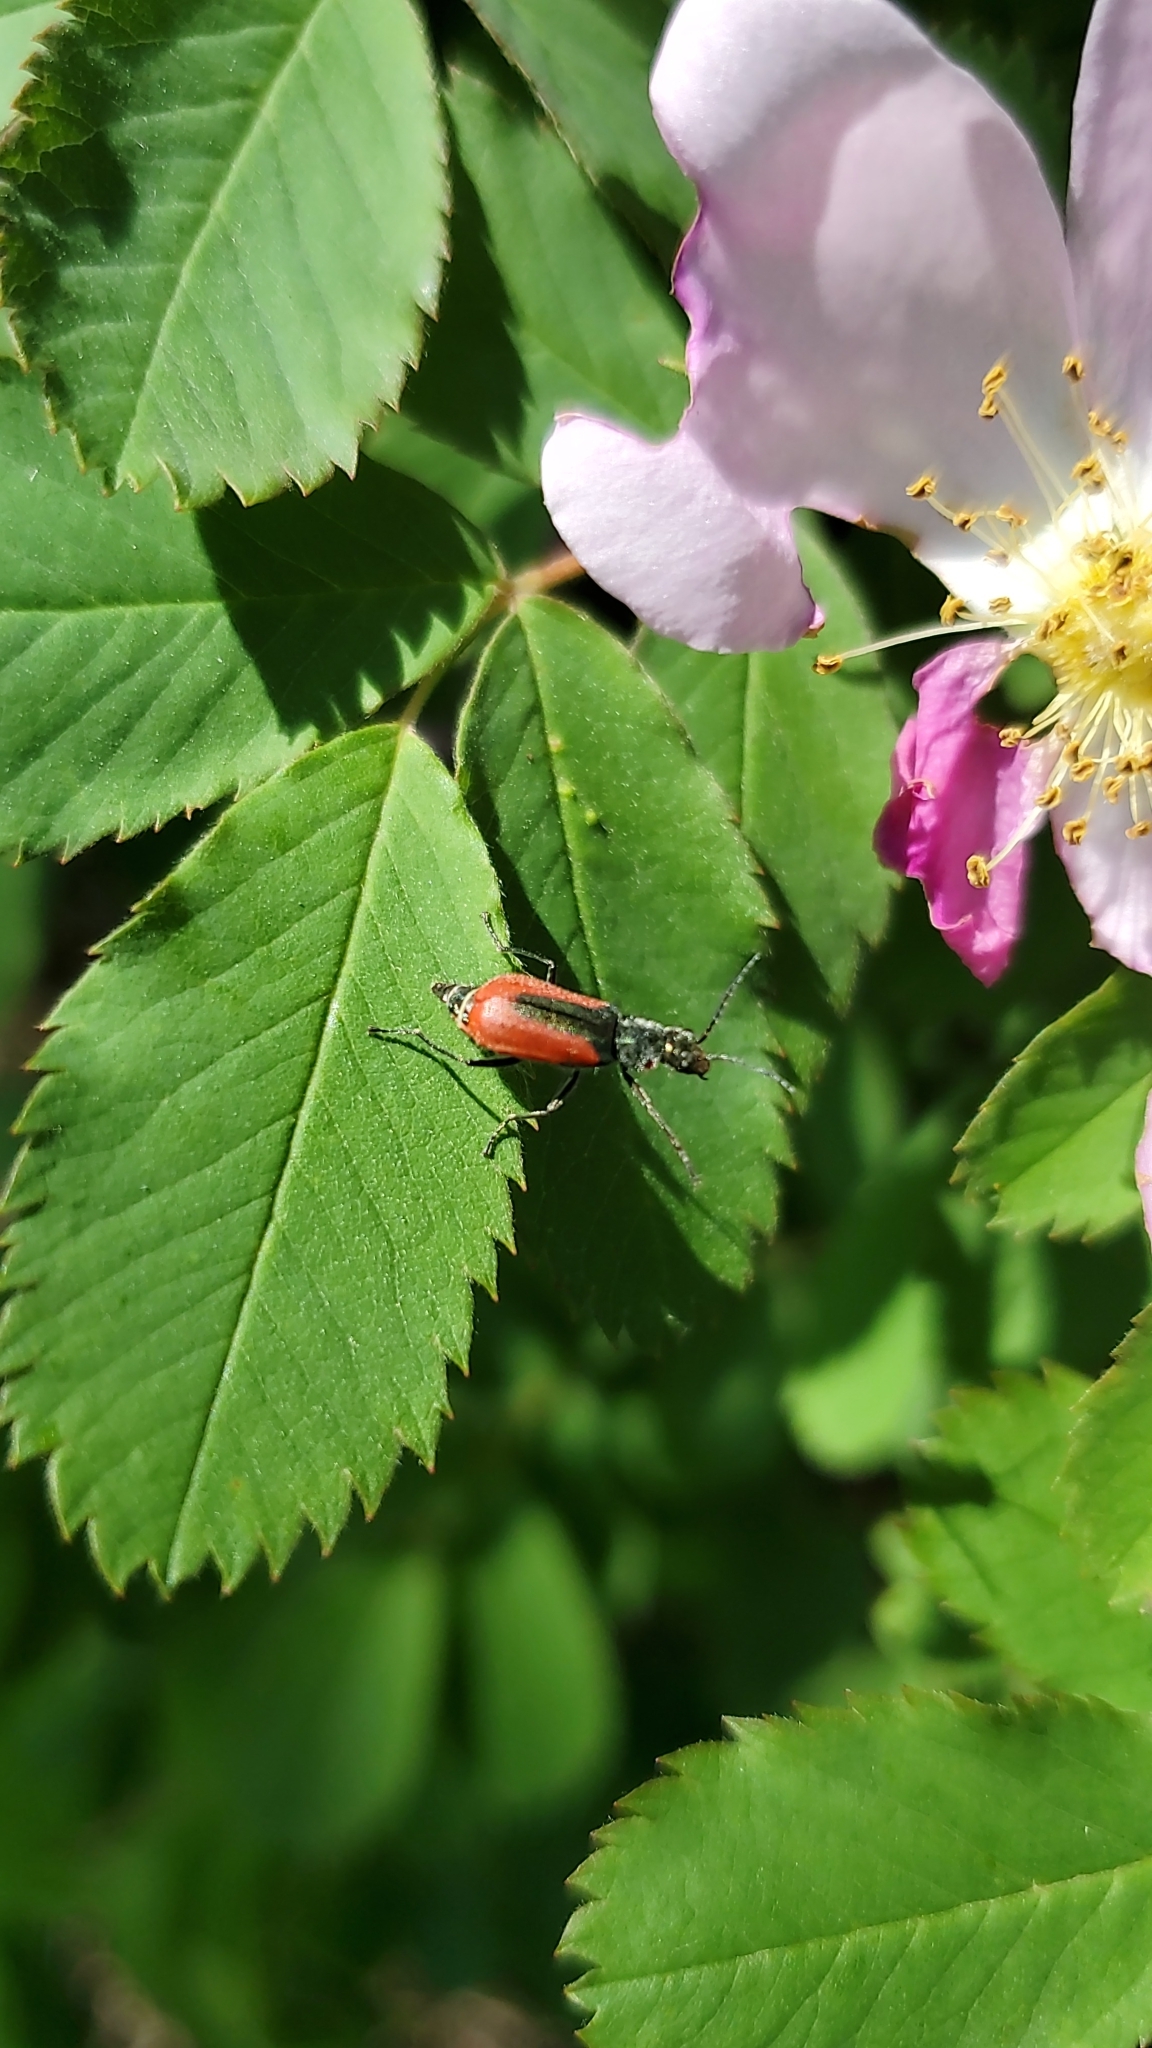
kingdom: Animalia
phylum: Arthropoda
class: Insecta
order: Coleoptera
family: Melyridae
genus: Malachius
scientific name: Malachius aeneus
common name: Scarlet malachite beetle
